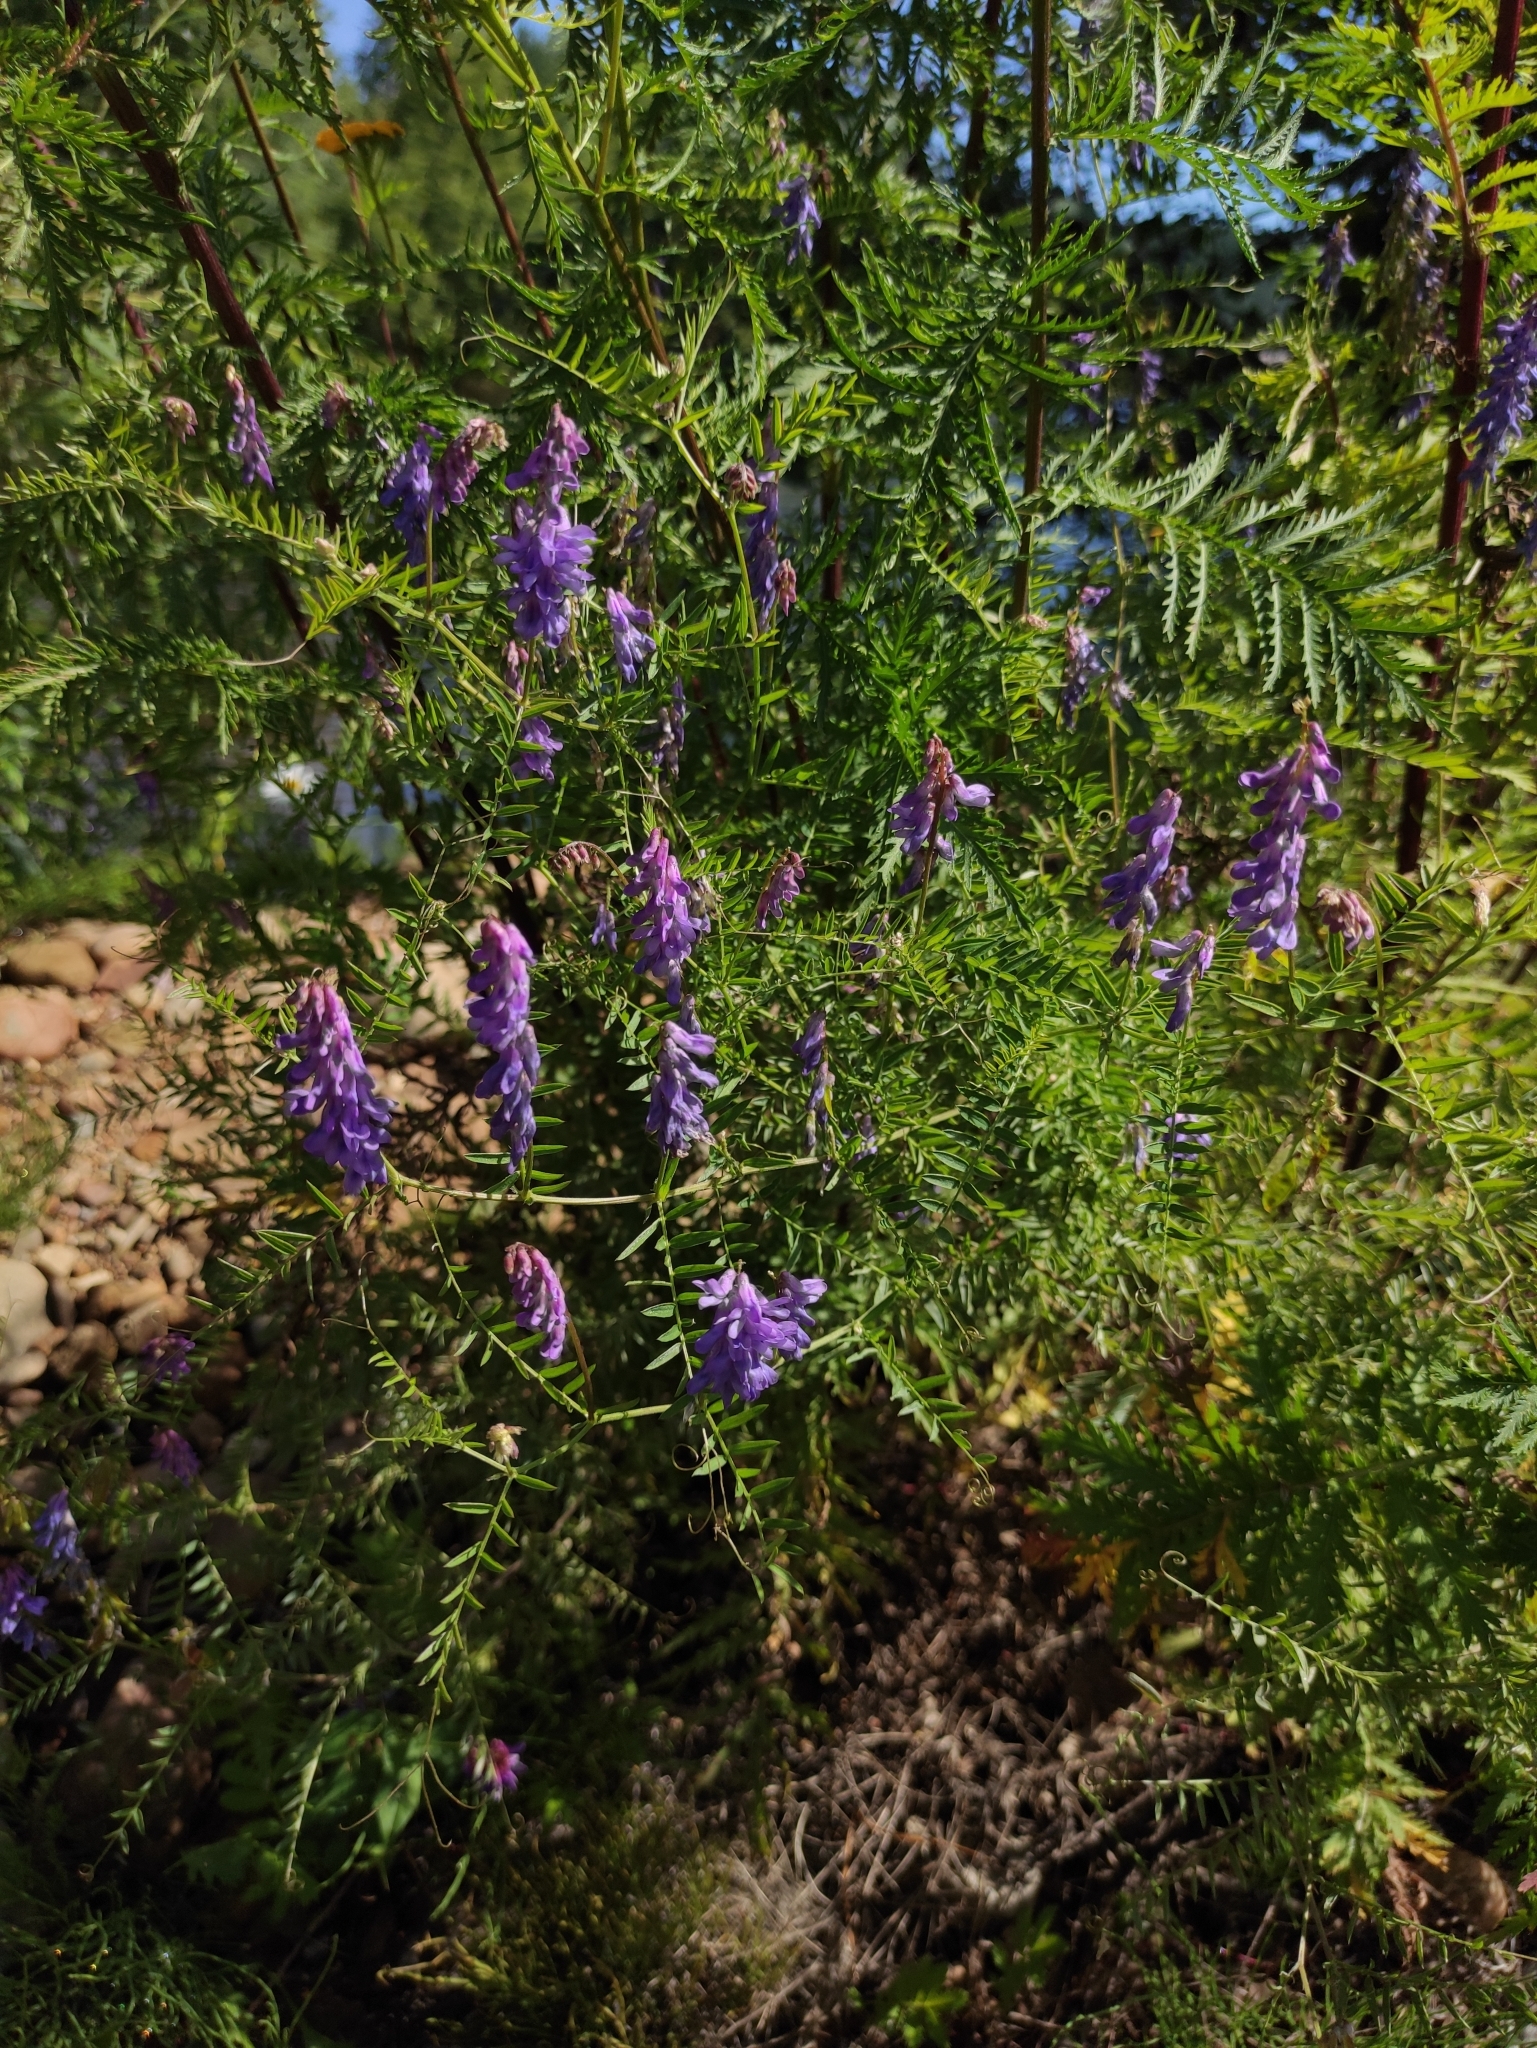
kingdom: Plantae
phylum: Tracheophyta
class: Magnoliopsida
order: Fabales
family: Fabaceae
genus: Vicia
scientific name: Vicia cracca
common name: Bird vetch
